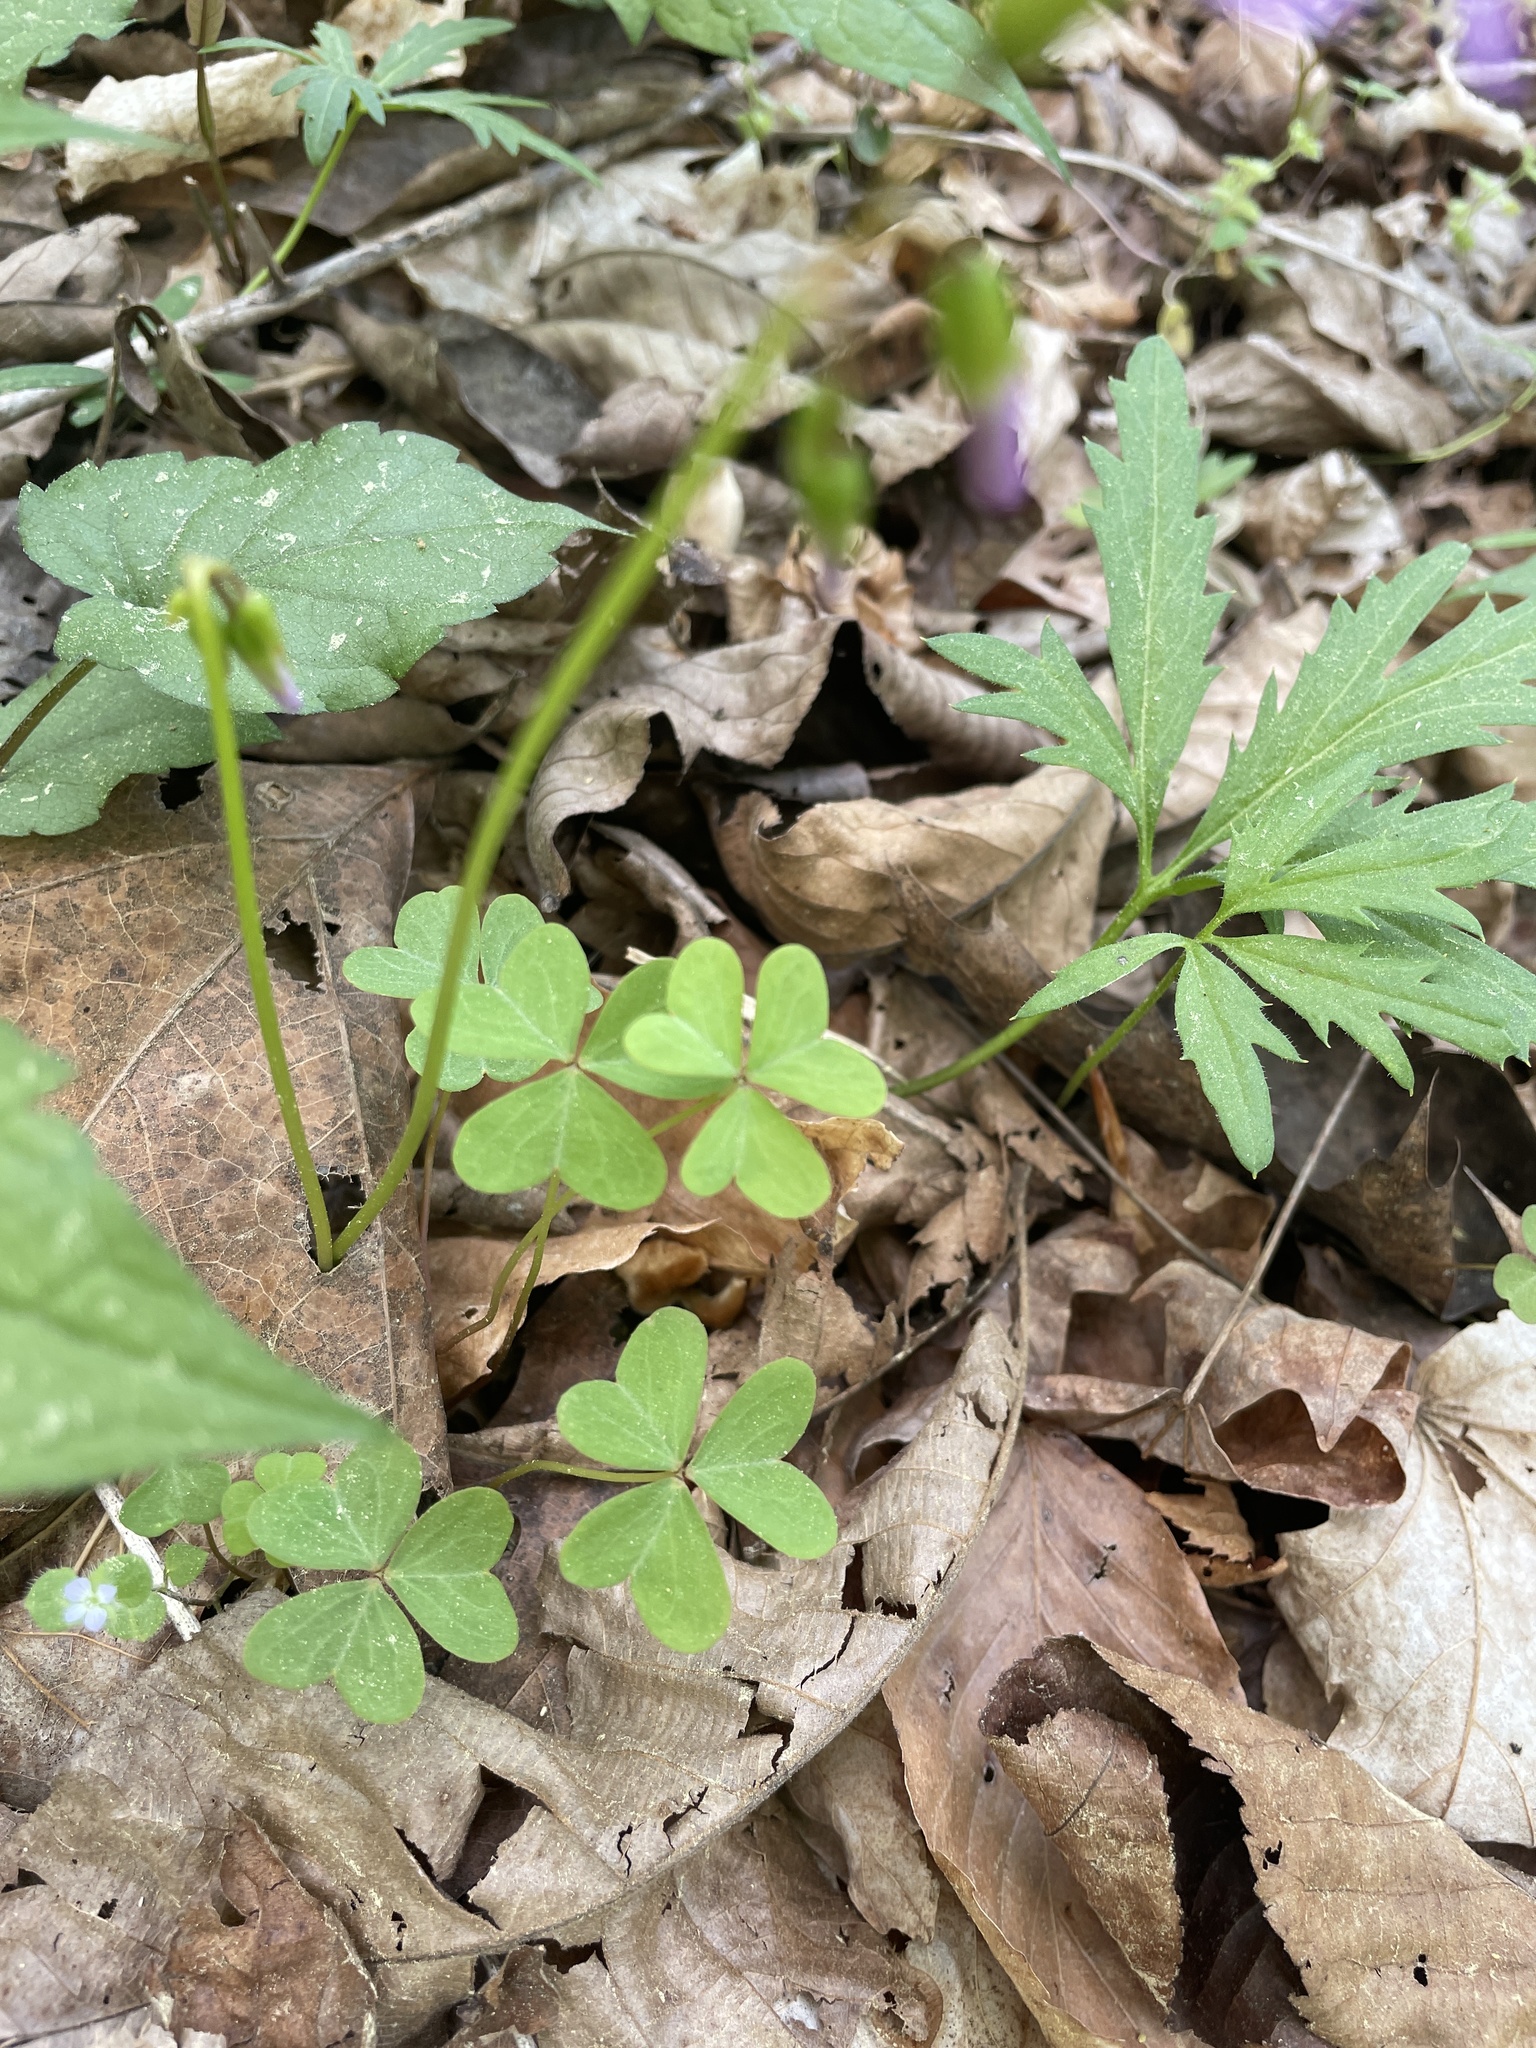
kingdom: Plantae
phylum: Tracheophyta
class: Magnoliopsida
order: Oxalidales
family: Oxalidaceae
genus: Oxalis
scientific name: Oxalis violacea
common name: Violet wood-sorrel
